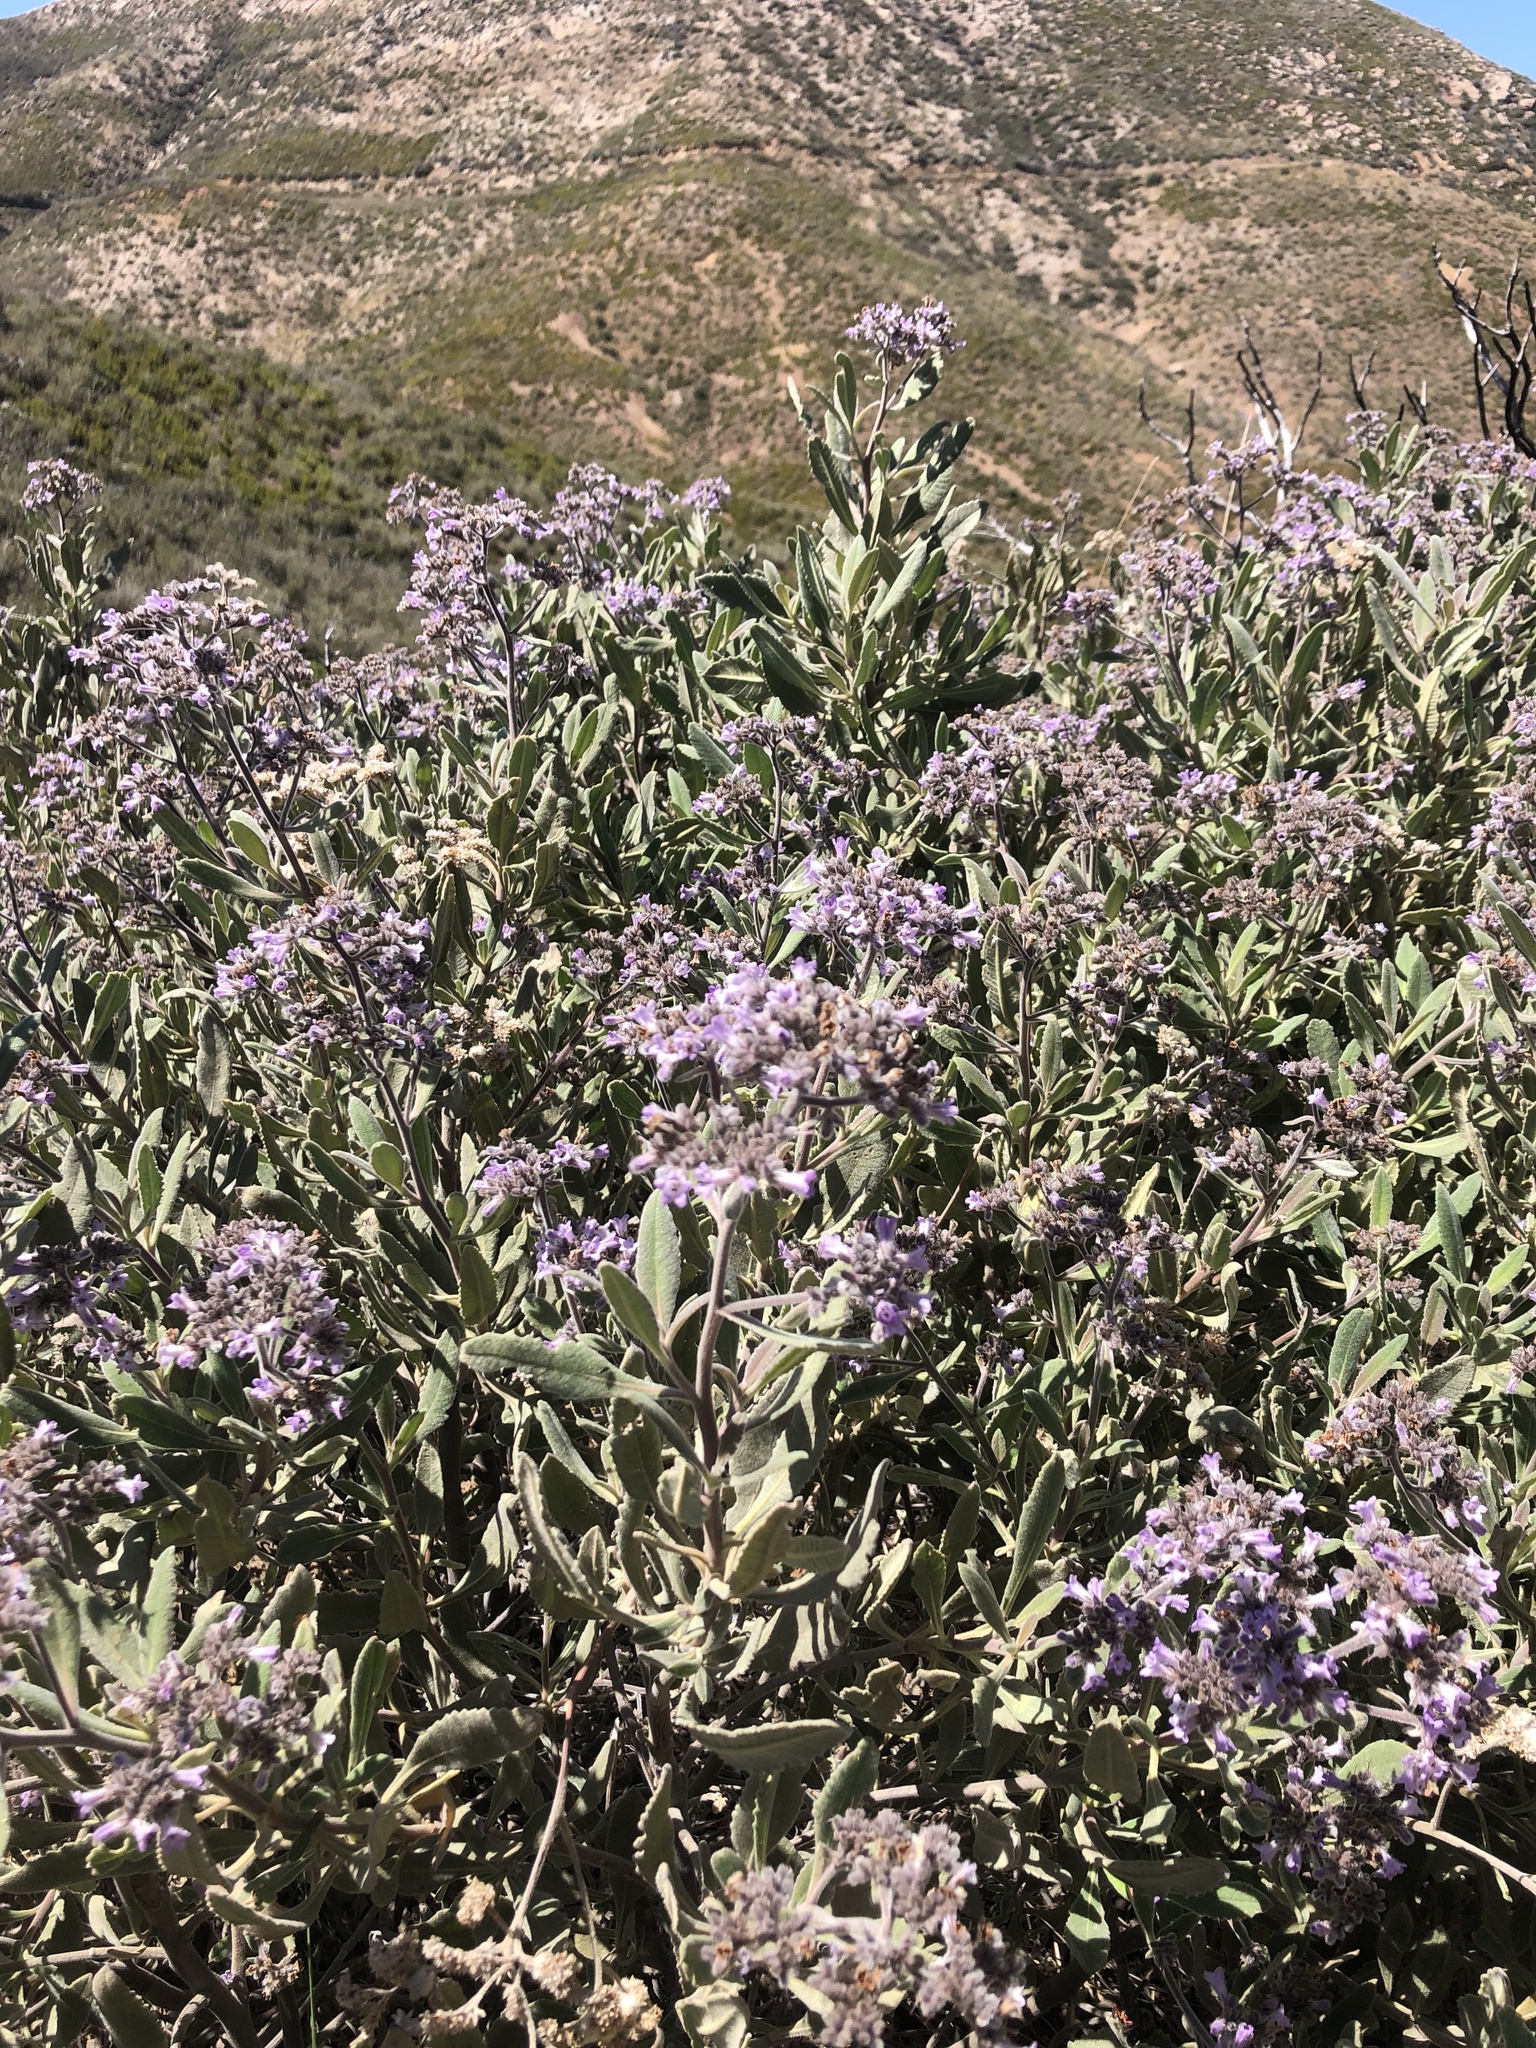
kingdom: Plantae
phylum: Tracheophyta
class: Magnoliopsida
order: Boraginales
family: Namaceae
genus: Eriodictyon
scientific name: Eriodictyon crassifolium
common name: Thick-leaf yerba-santa
